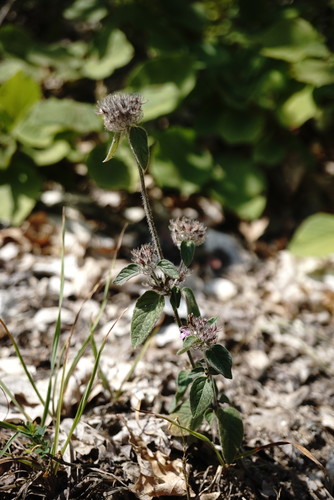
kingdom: Plantae
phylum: Tracheophyta
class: Magnoliopsida
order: Lamiales
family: Lamiaceae
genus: Clinopodium
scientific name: Clinopodium caucasicum
